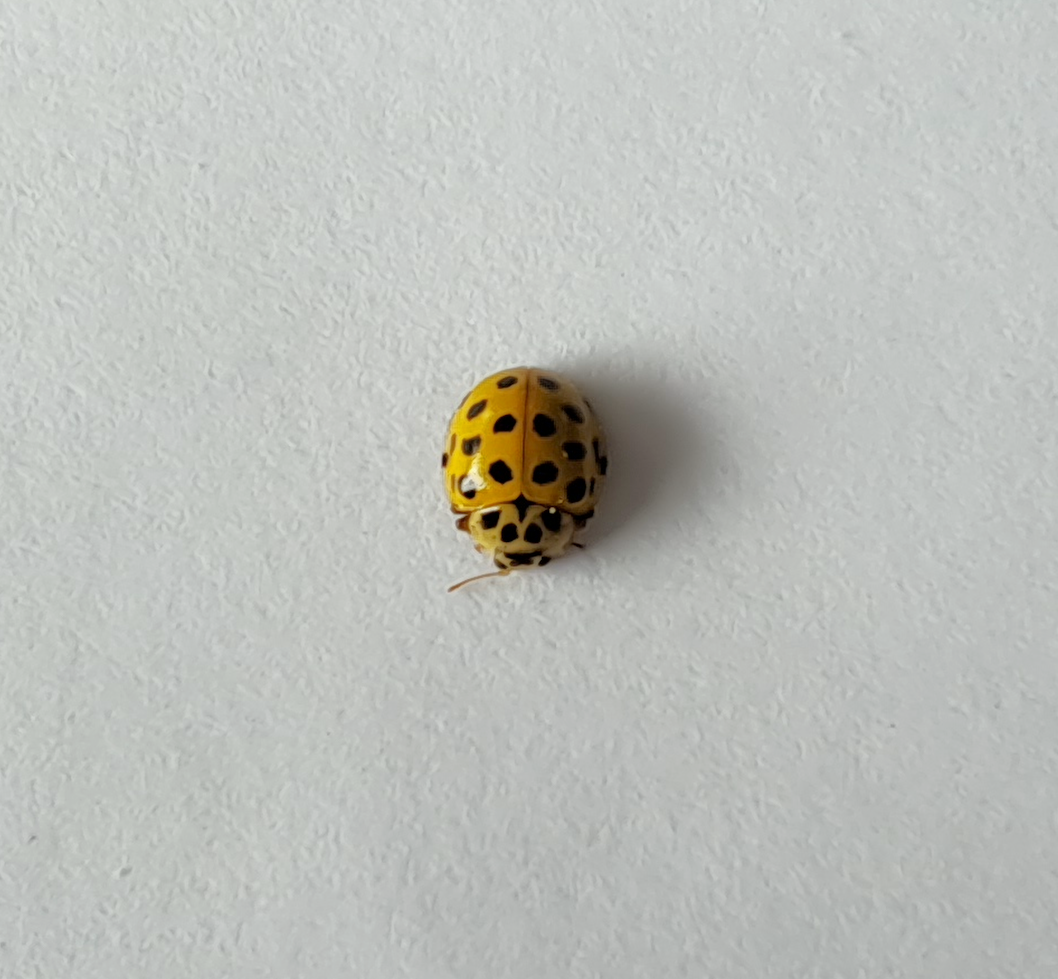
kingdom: Animalia
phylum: Arthropoda
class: Insecta
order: Coleoptera
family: Coccinellidae
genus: Psyllobora
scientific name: Psyllobora vigintiduopunctata
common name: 22-spot ladybird
